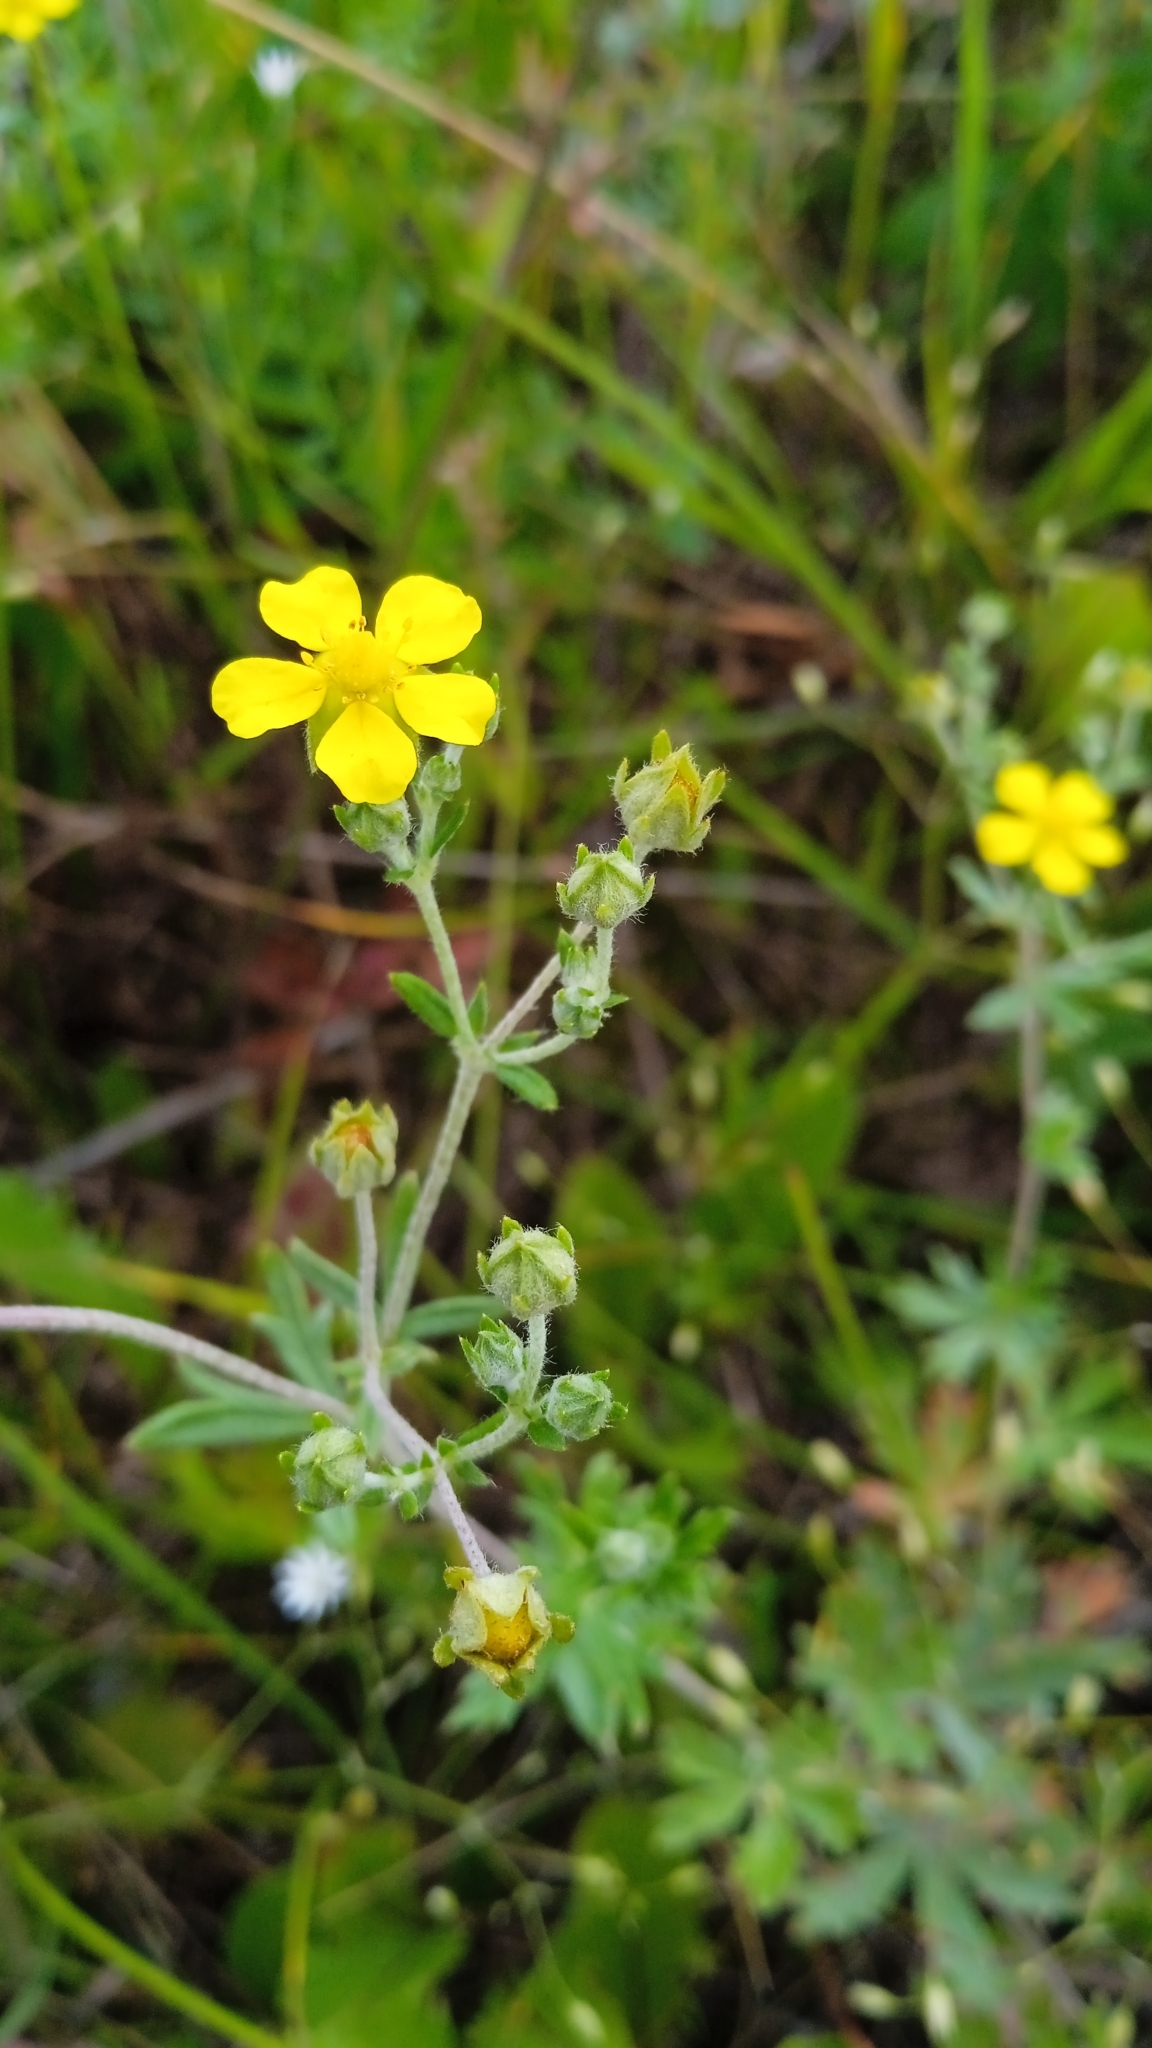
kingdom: Plantae
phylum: Tracheophyta
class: Magnoliopsida
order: Rosales
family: Rosaceae
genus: Potentilla
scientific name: Potentilla argentea
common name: Hoary cinquefoil
